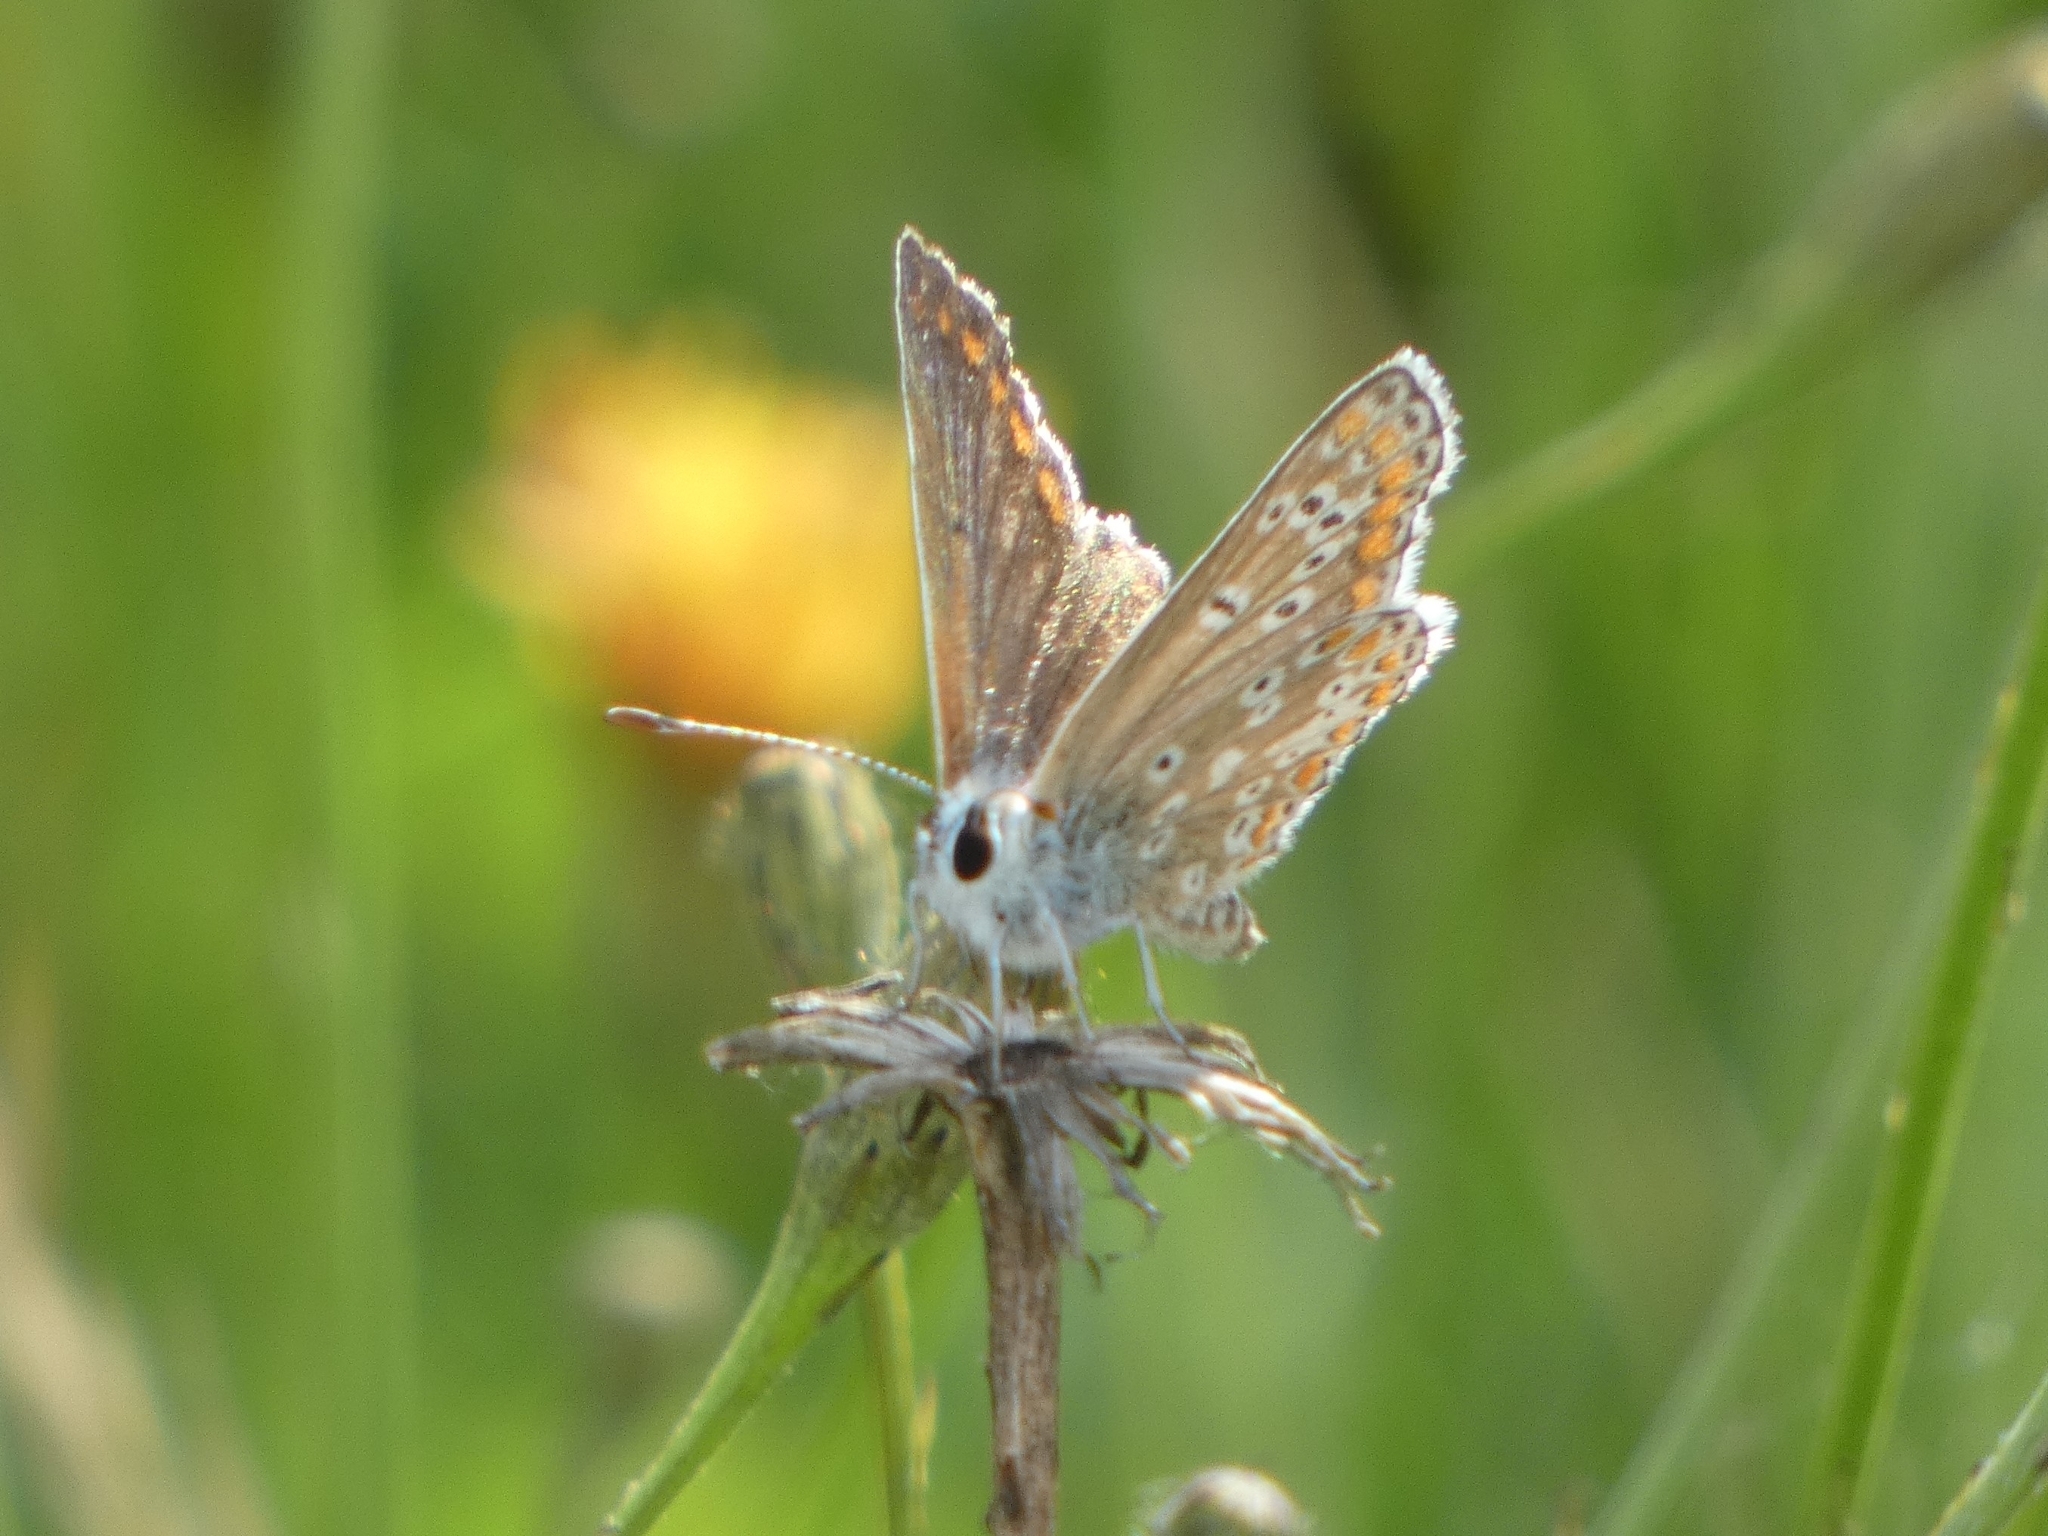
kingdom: Animalia
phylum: Arthropoda
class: Insecta
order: Lepidoptera
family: Lycaenidae
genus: Aricia
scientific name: Aricia agestis
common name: Brown argus
